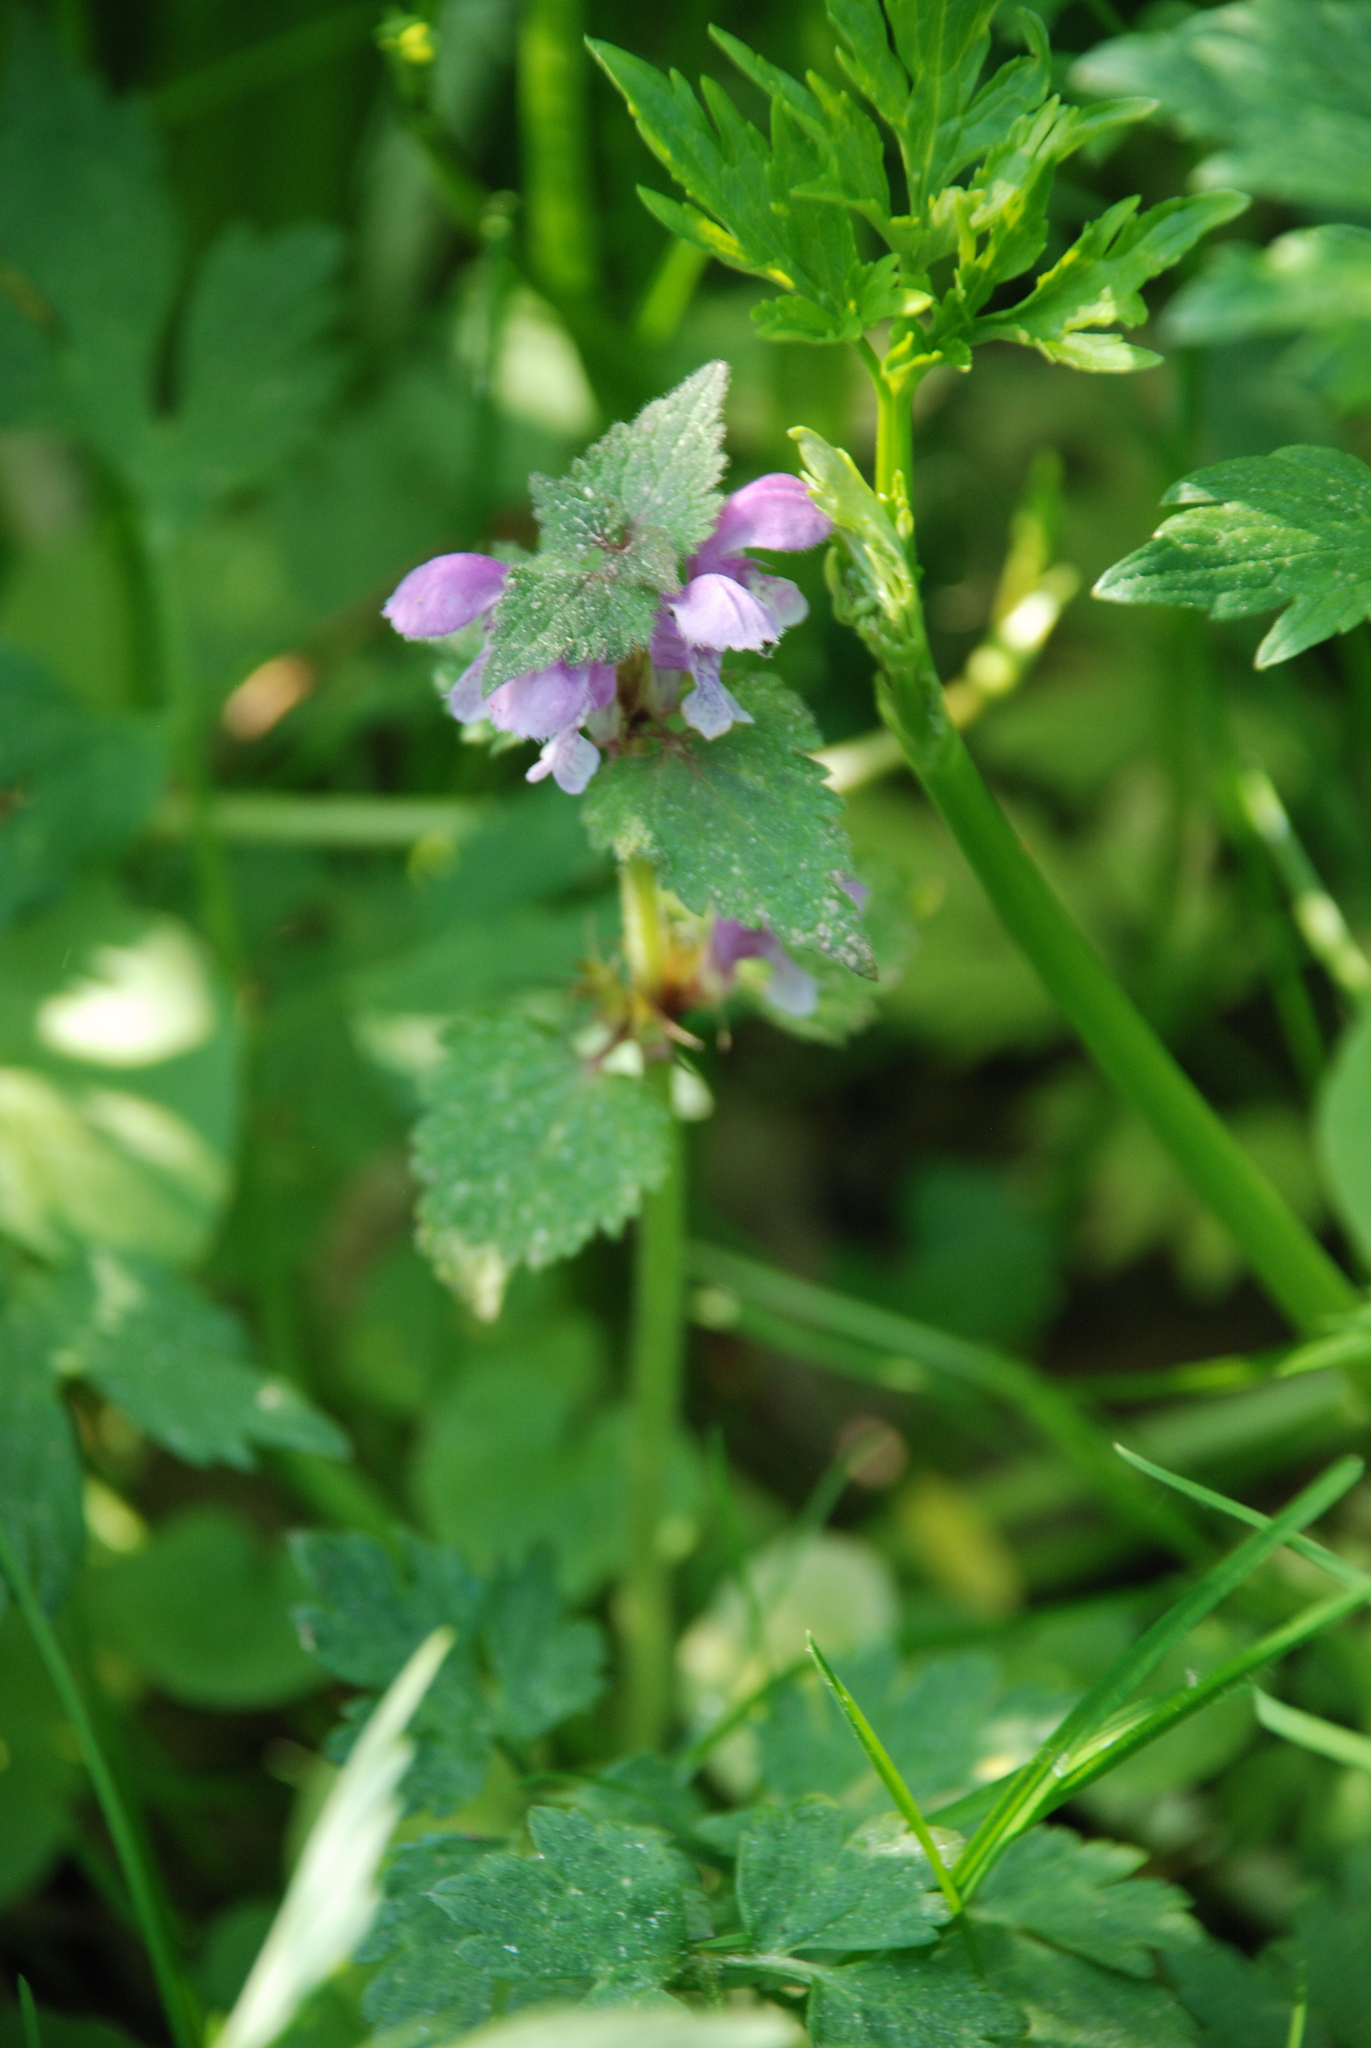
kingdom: Plantae
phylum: Tracheophyta
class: Magnoliopsida
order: Lamiales
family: Lamiaceae
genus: Lamium
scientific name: Lamium maculatum
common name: Spotted dead-nettle
